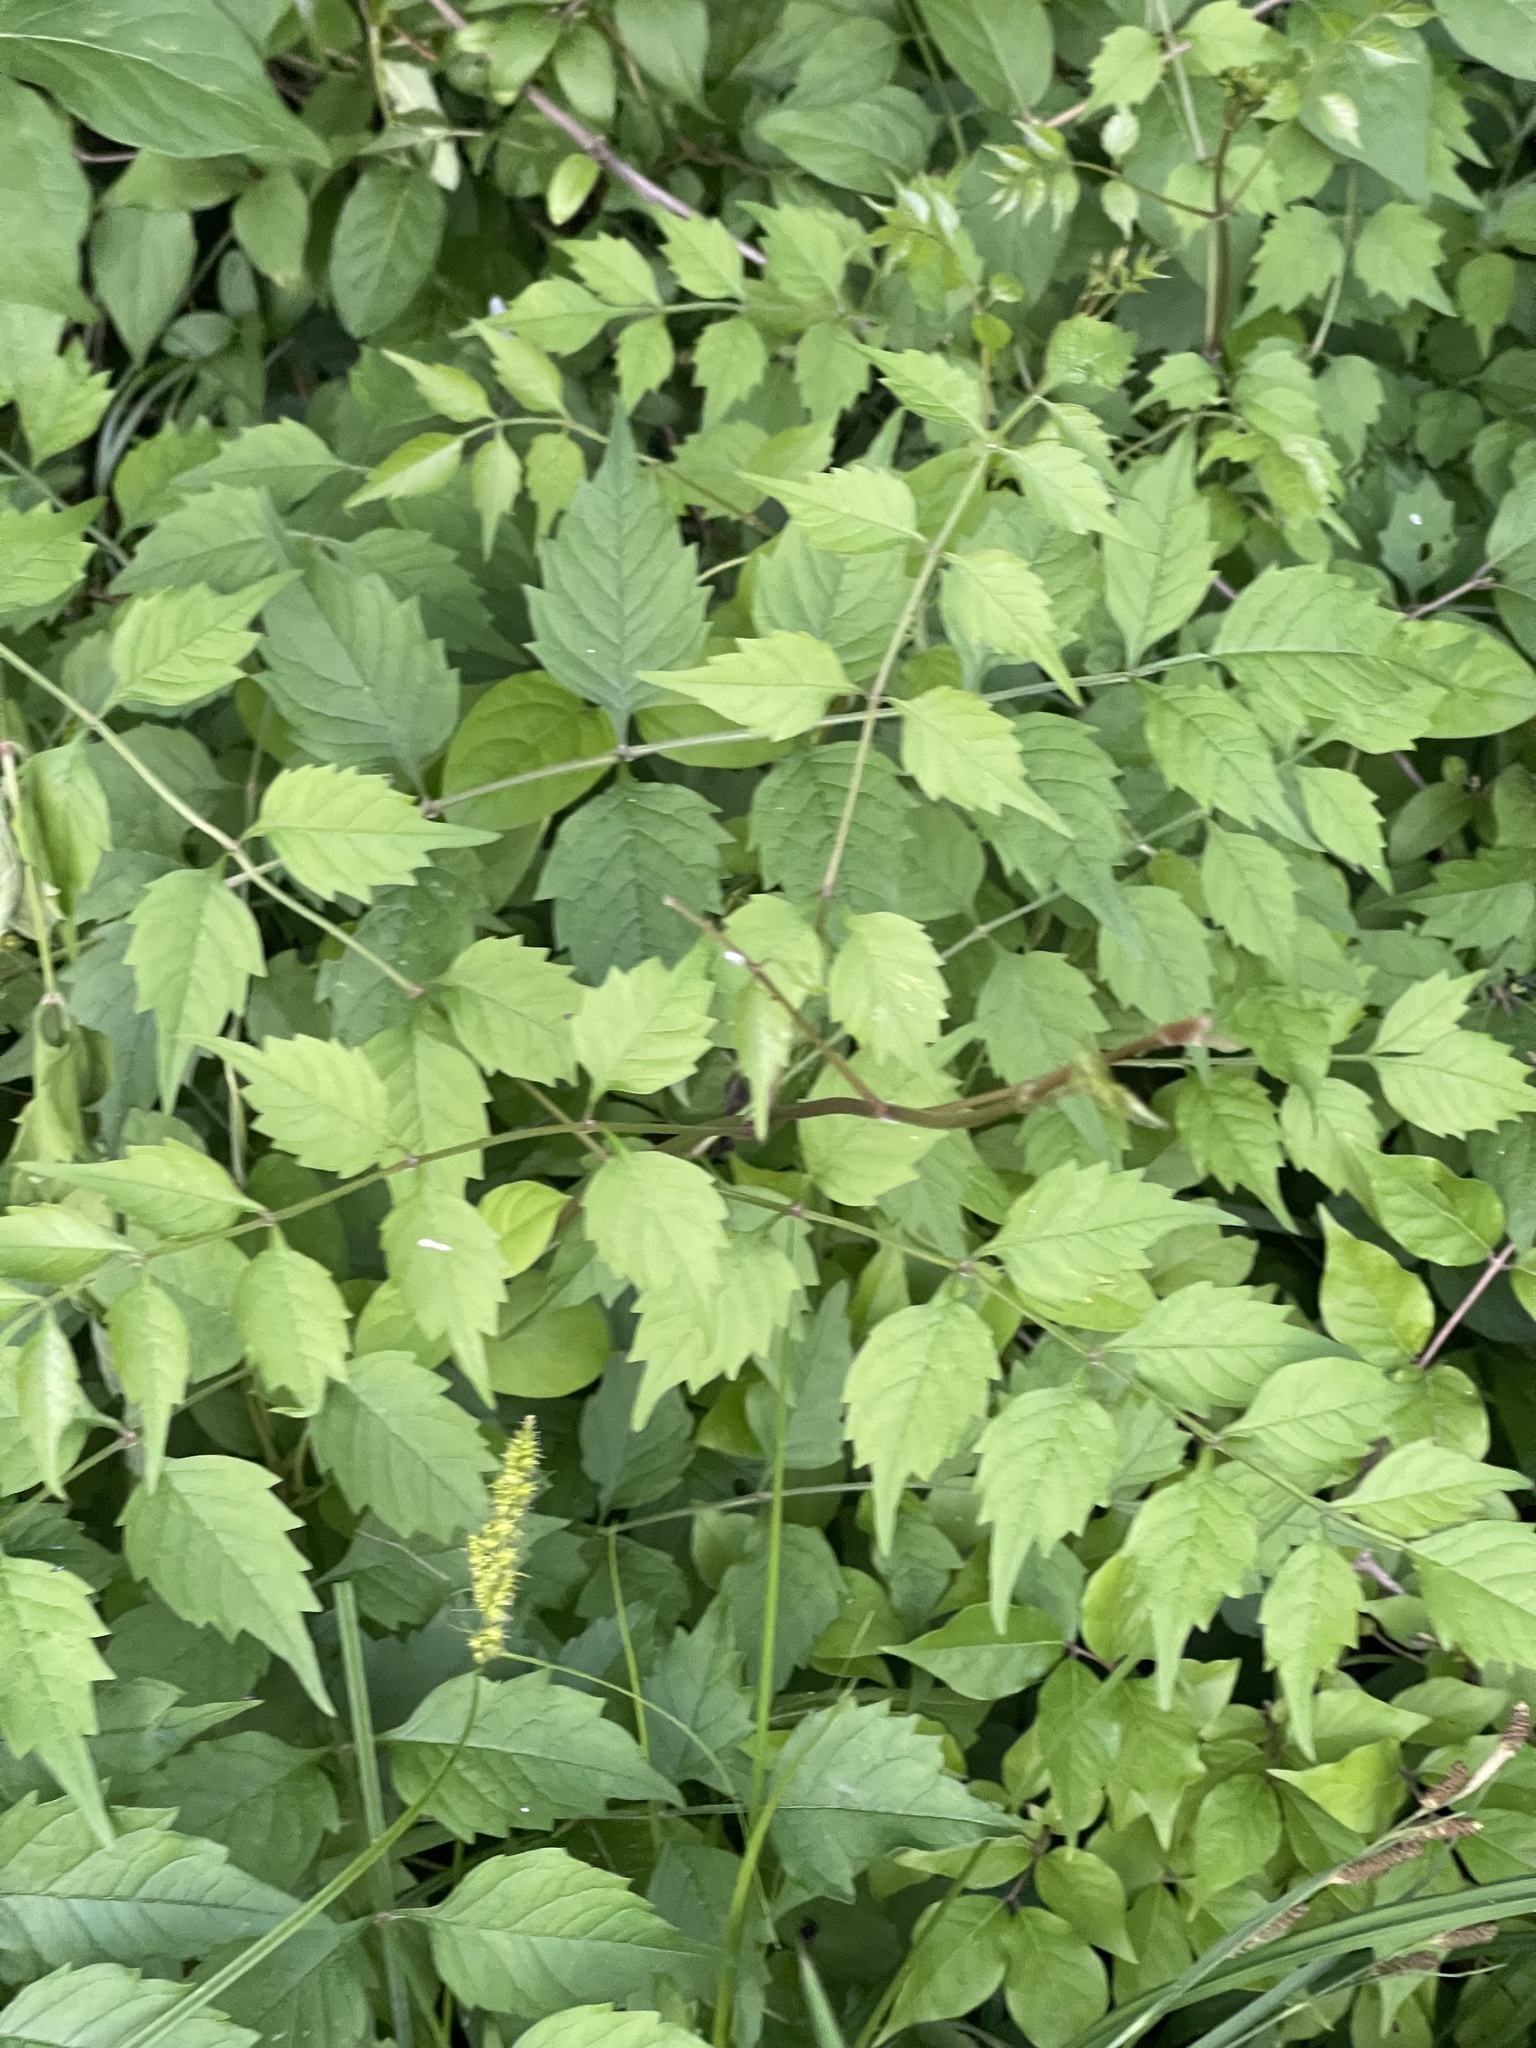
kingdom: Plantae
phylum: Tracheophyta
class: Magnoliopsida
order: Lamiales
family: Bignoniaceae
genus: Campsis
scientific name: Campsis radicans
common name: Trumpet-creeper
